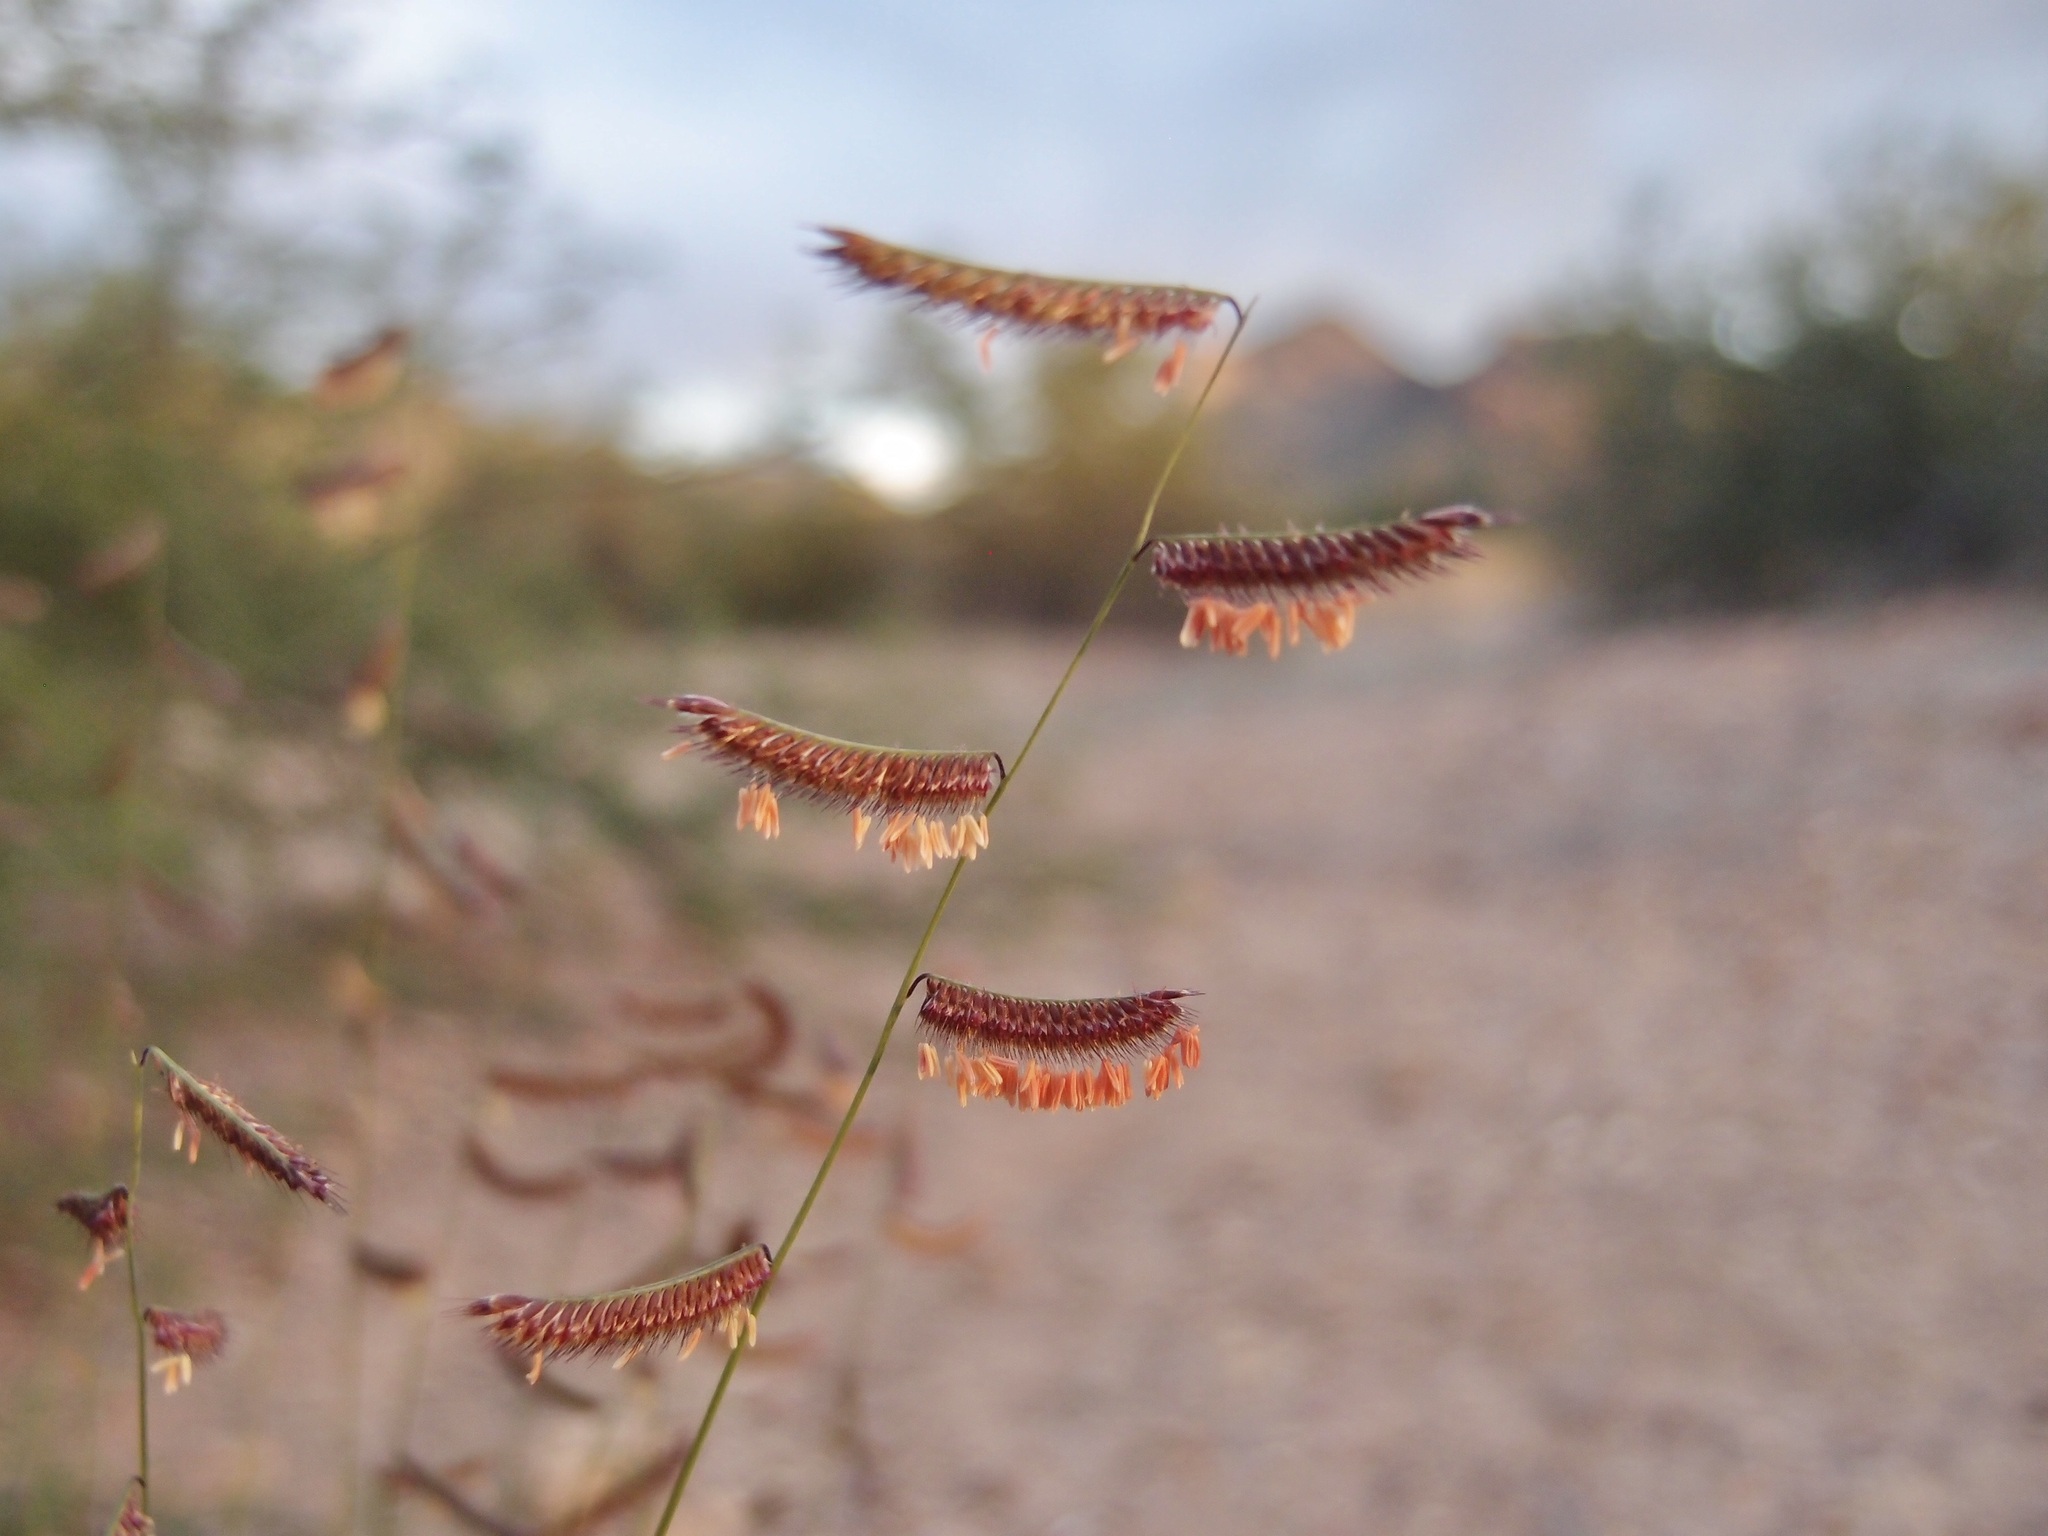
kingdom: Plantae
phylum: Tracheophyta
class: Liliopsida
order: Poales
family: Poaceae
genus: Bouteloua
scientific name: Bouteloua barbata
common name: Six-weeks grama
